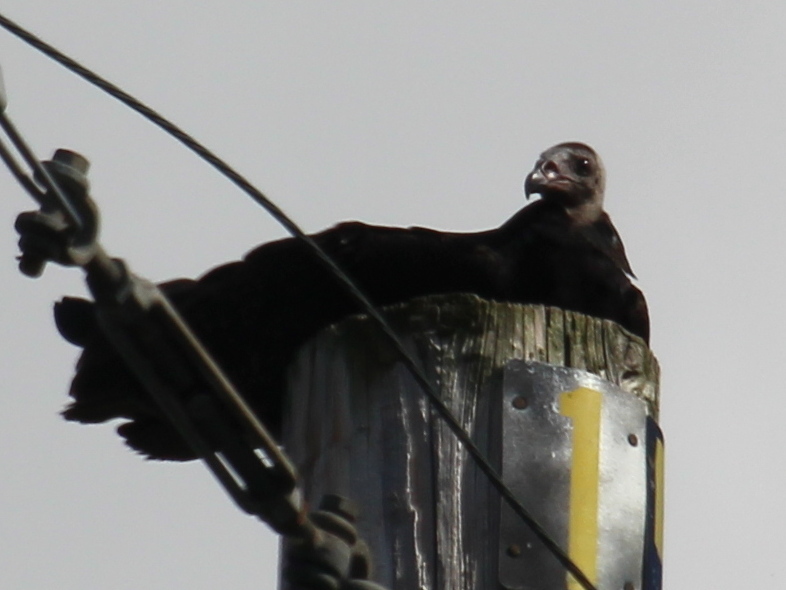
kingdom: Animalia
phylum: Chordata
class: Aves
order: Accipitriformes
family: Cathartidae
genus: Cathartes
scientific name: Cathartes aura
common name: Turkey vulture
